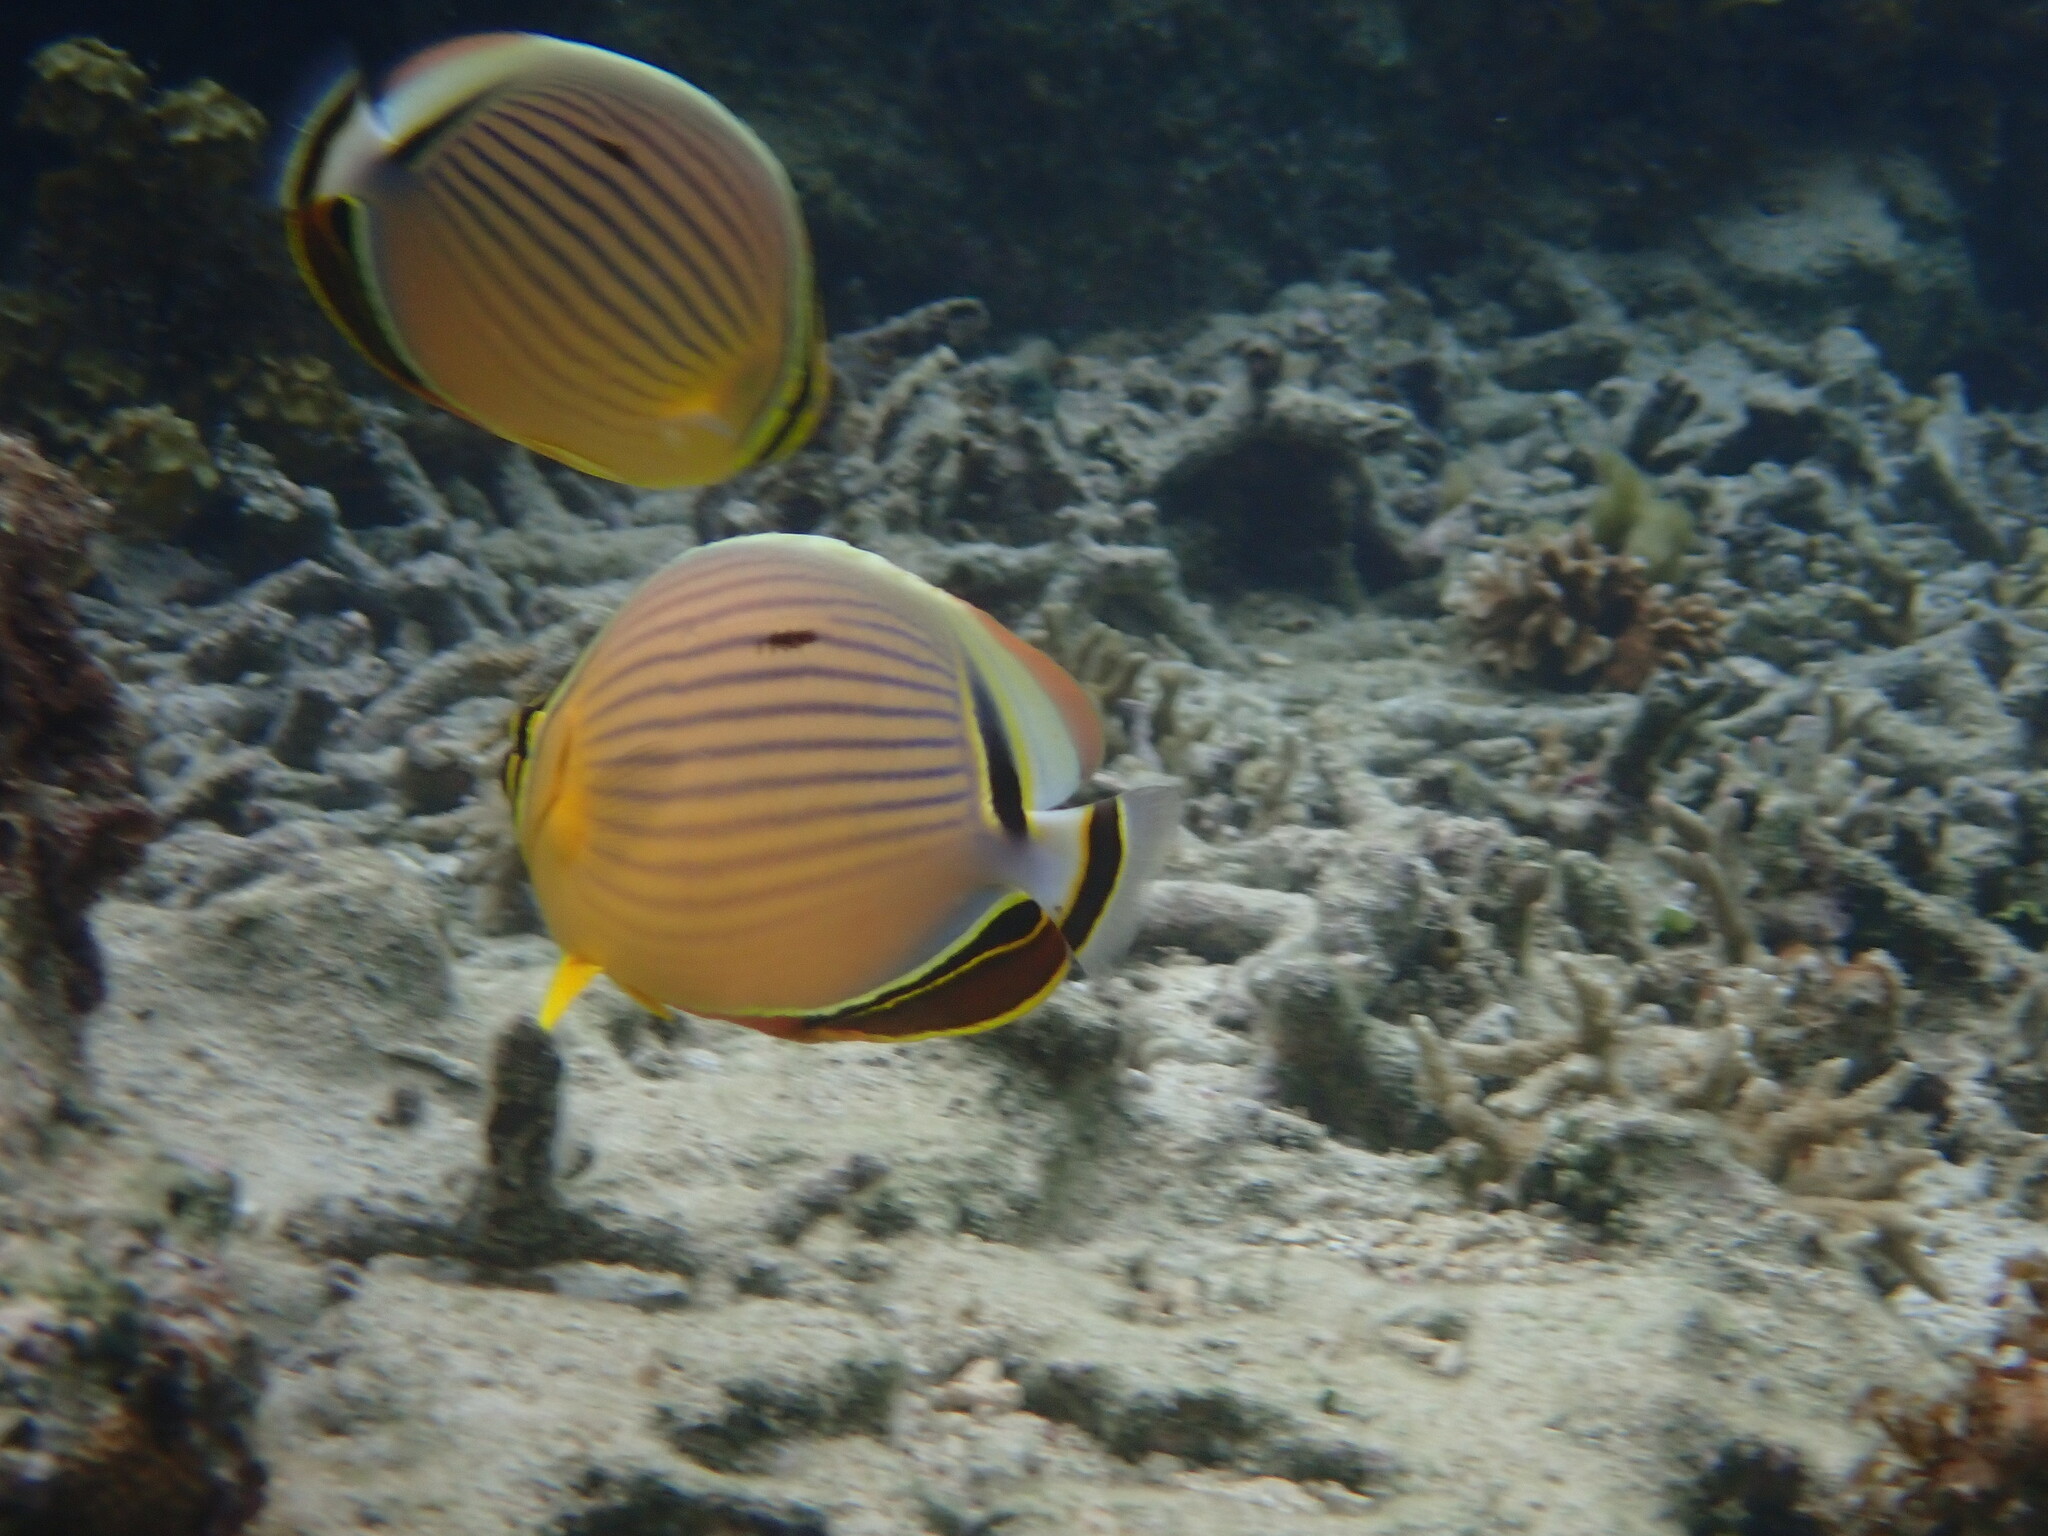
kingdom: Animalia
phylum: Chordata
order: Perciformes
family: Chaetodontidae
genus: Chaetodon
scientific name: Chaetodon lunulatus
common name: Redfin butterflyfish
